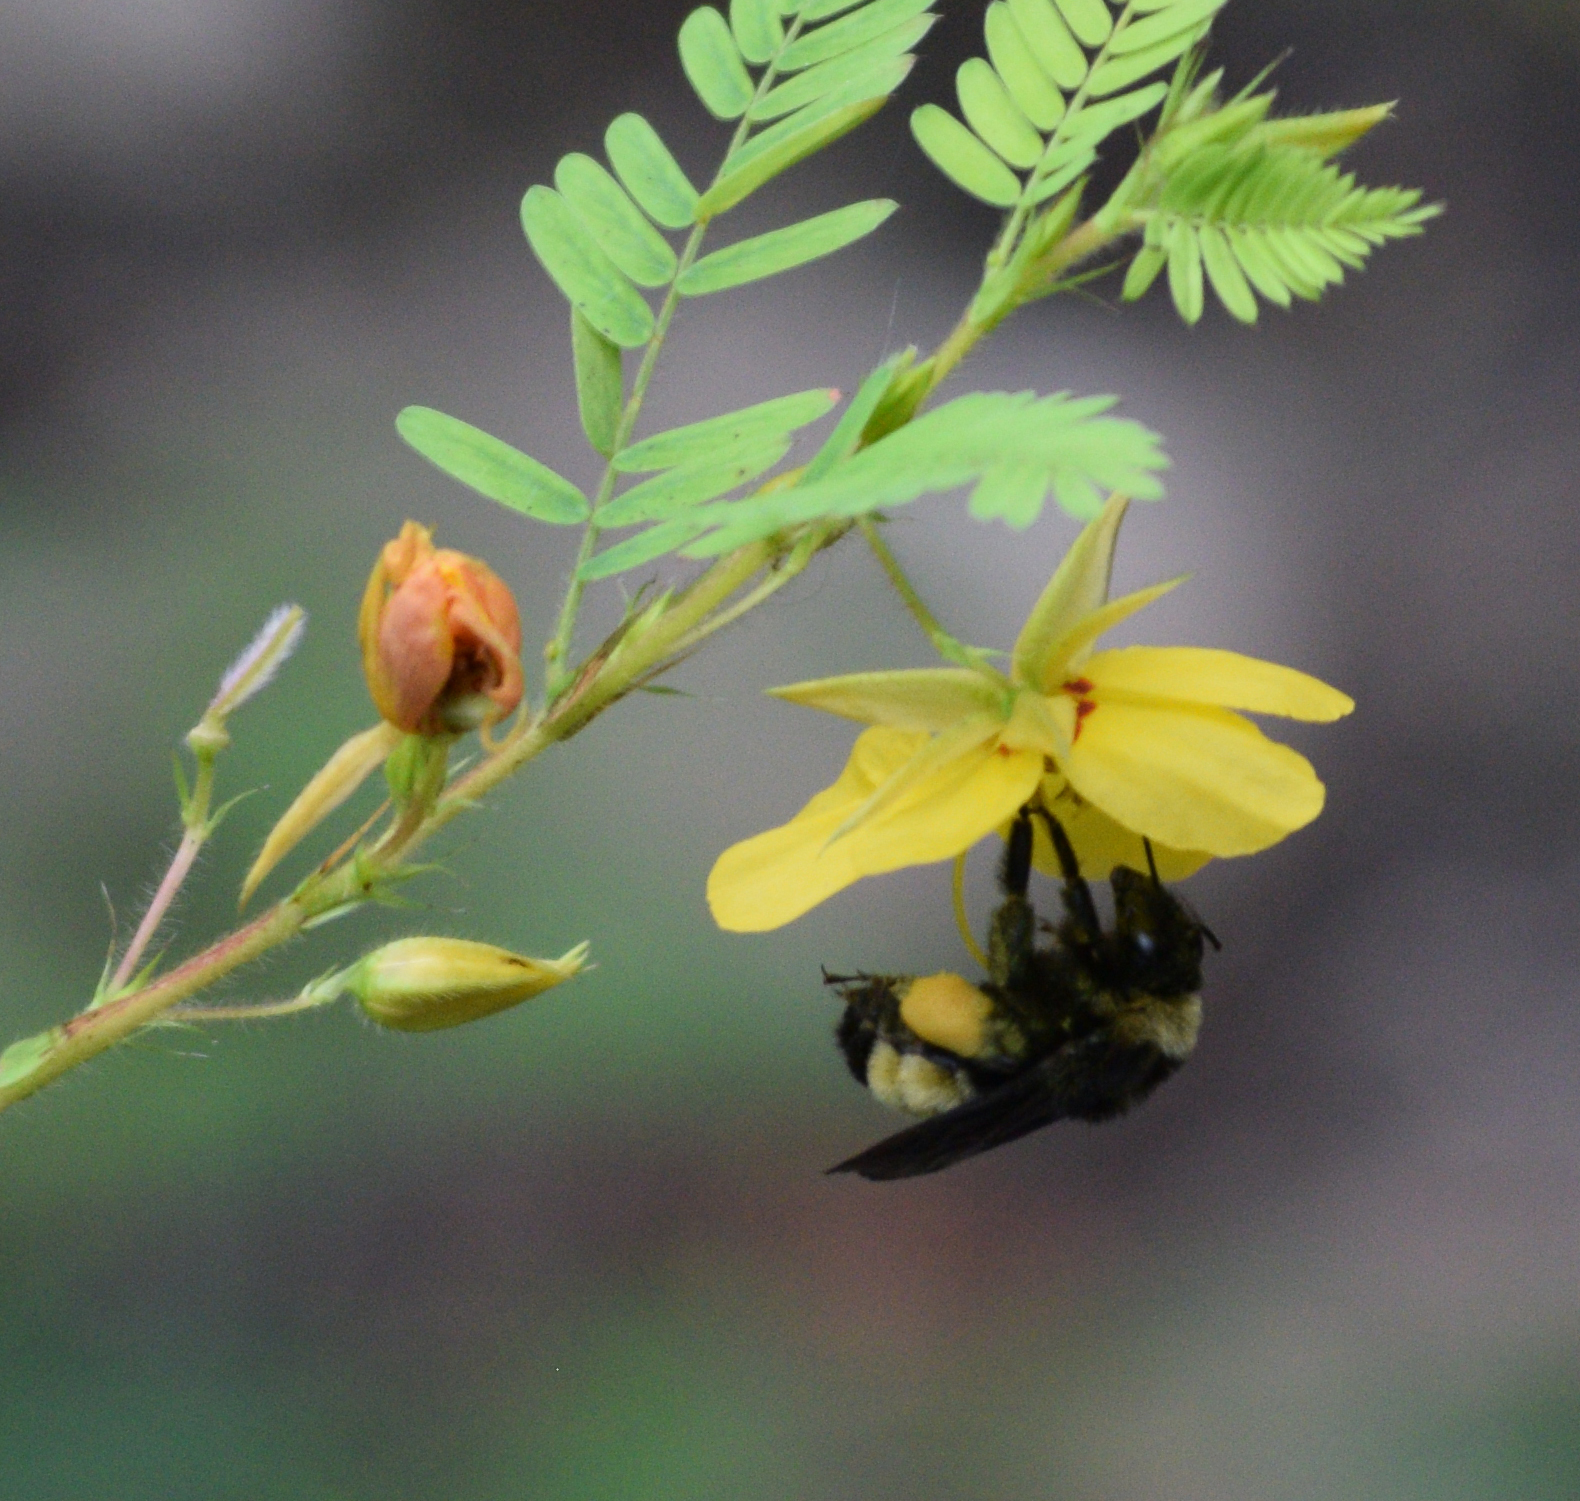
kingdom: Animalia
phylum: Arthropoda
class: Insecta
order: Hymenoptera
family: Apidae
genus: Bombus
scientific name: Bombus pensylvanicus
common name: Bumble bee
